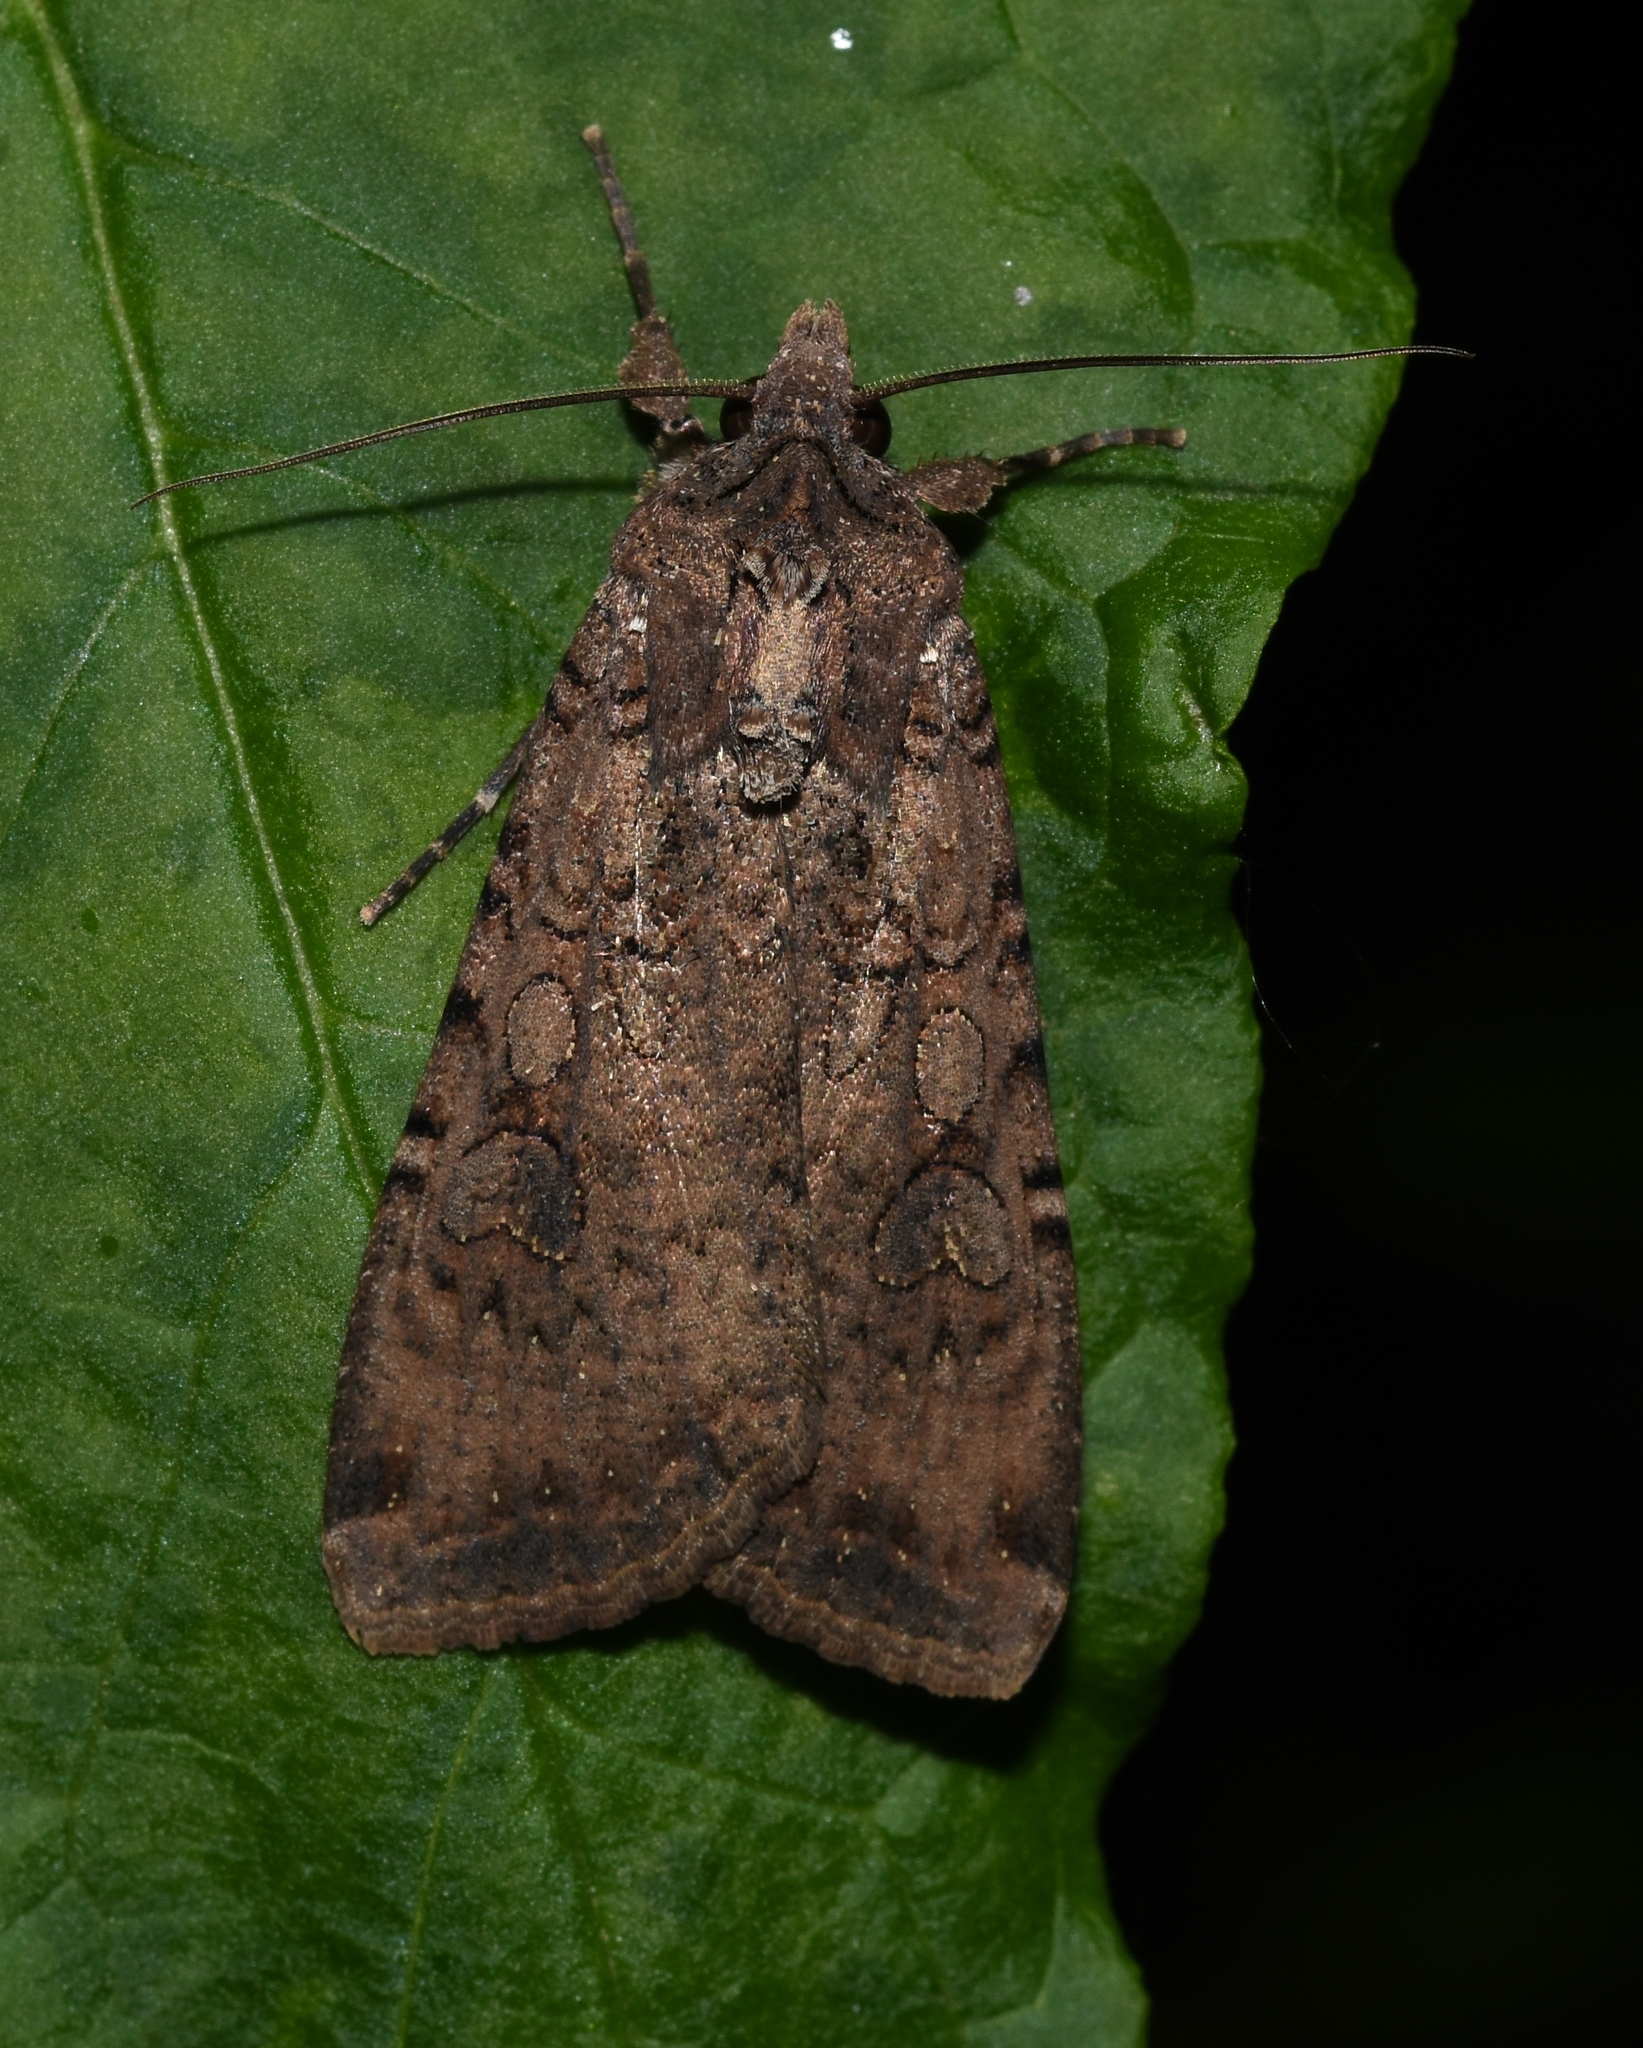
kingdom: Animalia
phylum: Arthropoda
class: Insecta
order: Lepidoptera
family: Noctuidae
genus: Peridroma
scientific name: Peridroma saucia
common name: Pearly underwing
